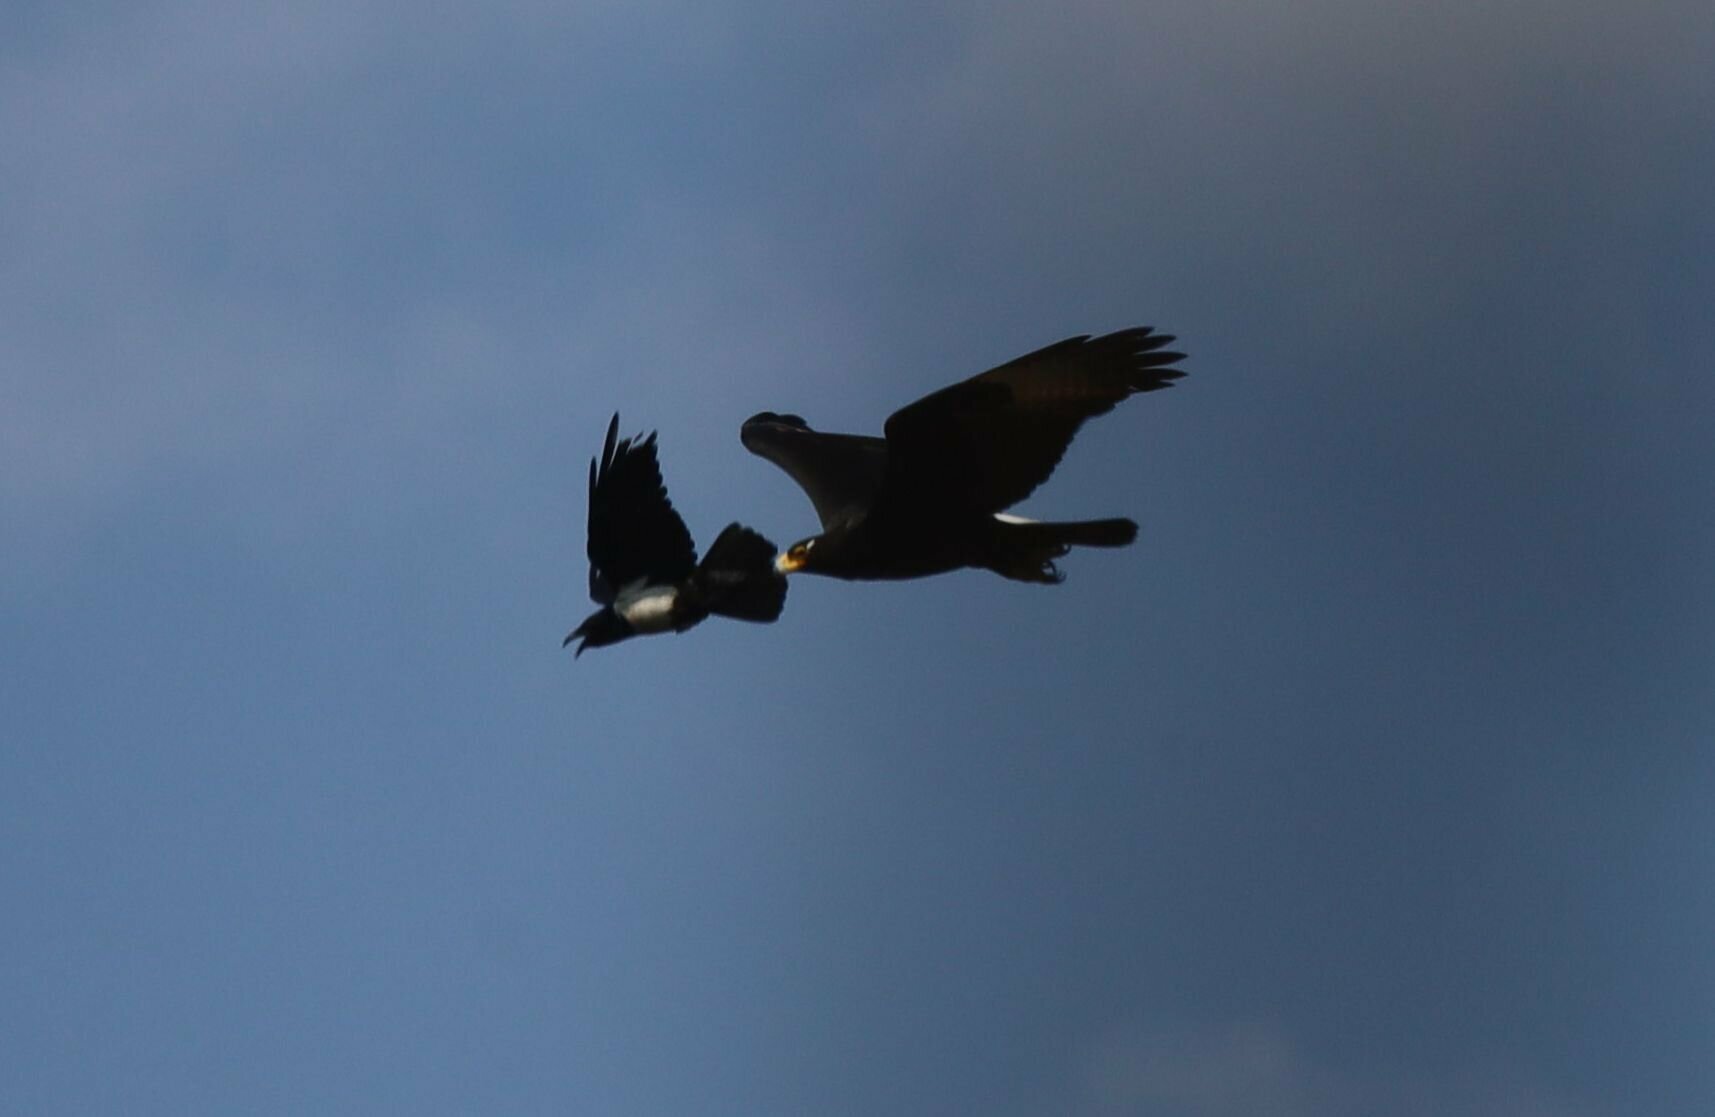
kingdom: Animalia
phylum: Chordata
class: Aves
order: Passeriformes
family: Corvidae
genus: Corvus
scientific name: Corvus albus
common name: Pied crow
